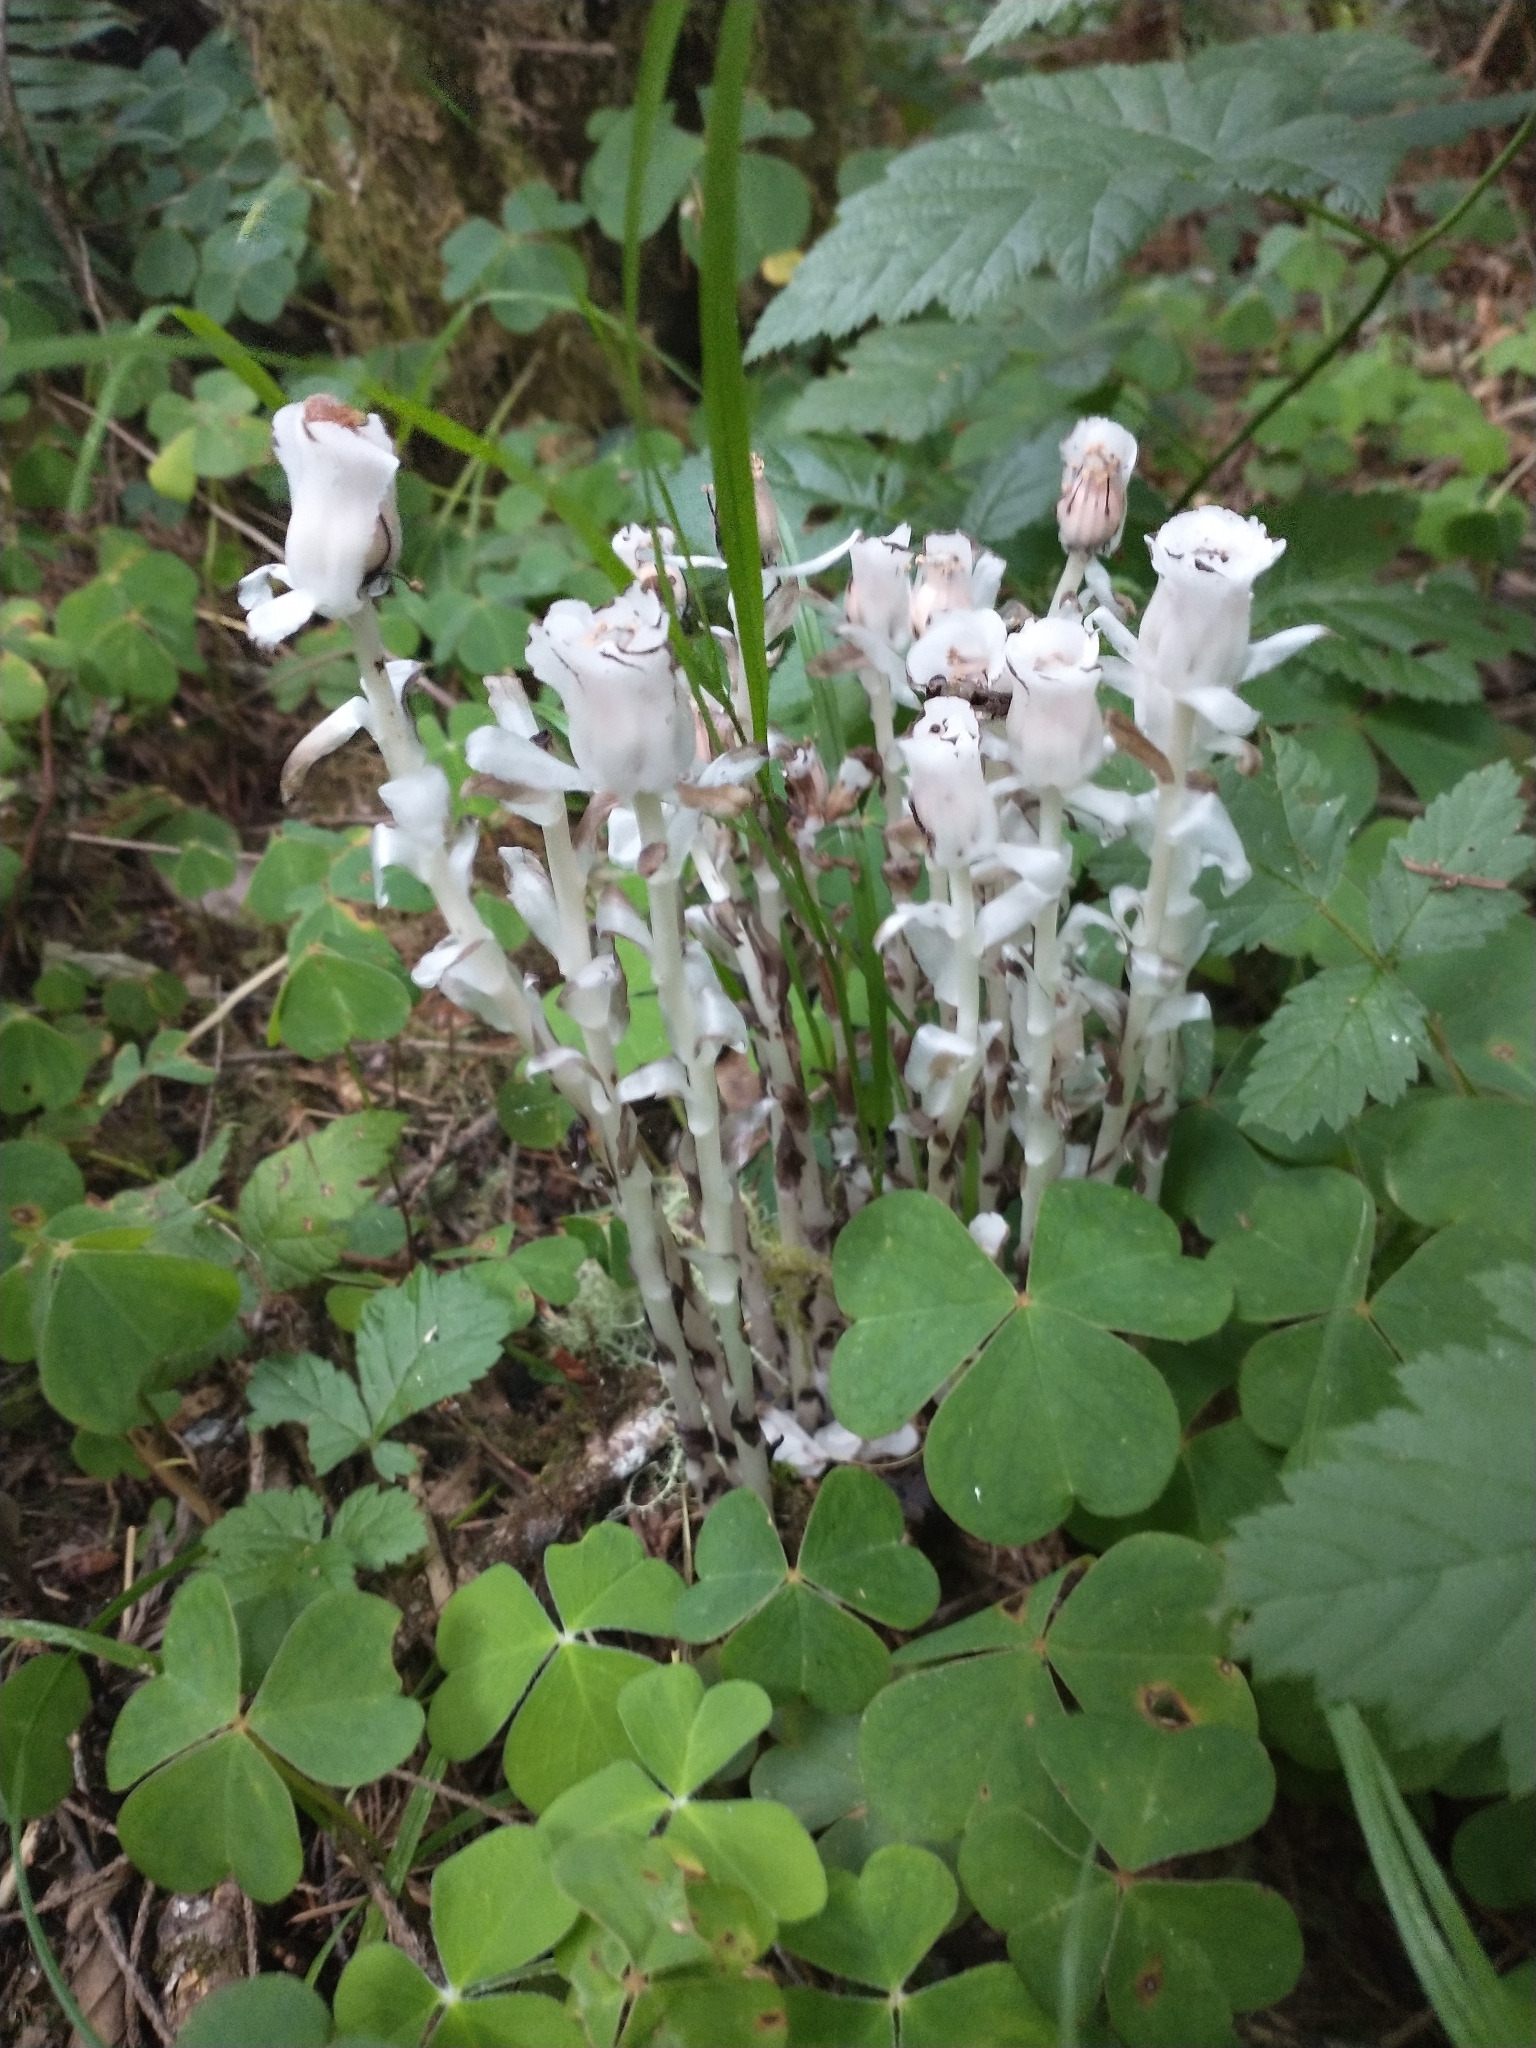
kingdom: Plantae
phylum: Tracheophyta
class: Magnoliopsida
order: Ericales
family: Ericaceae
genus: Monotropa
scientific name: Monotropa uniflora
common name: Convulsion root
